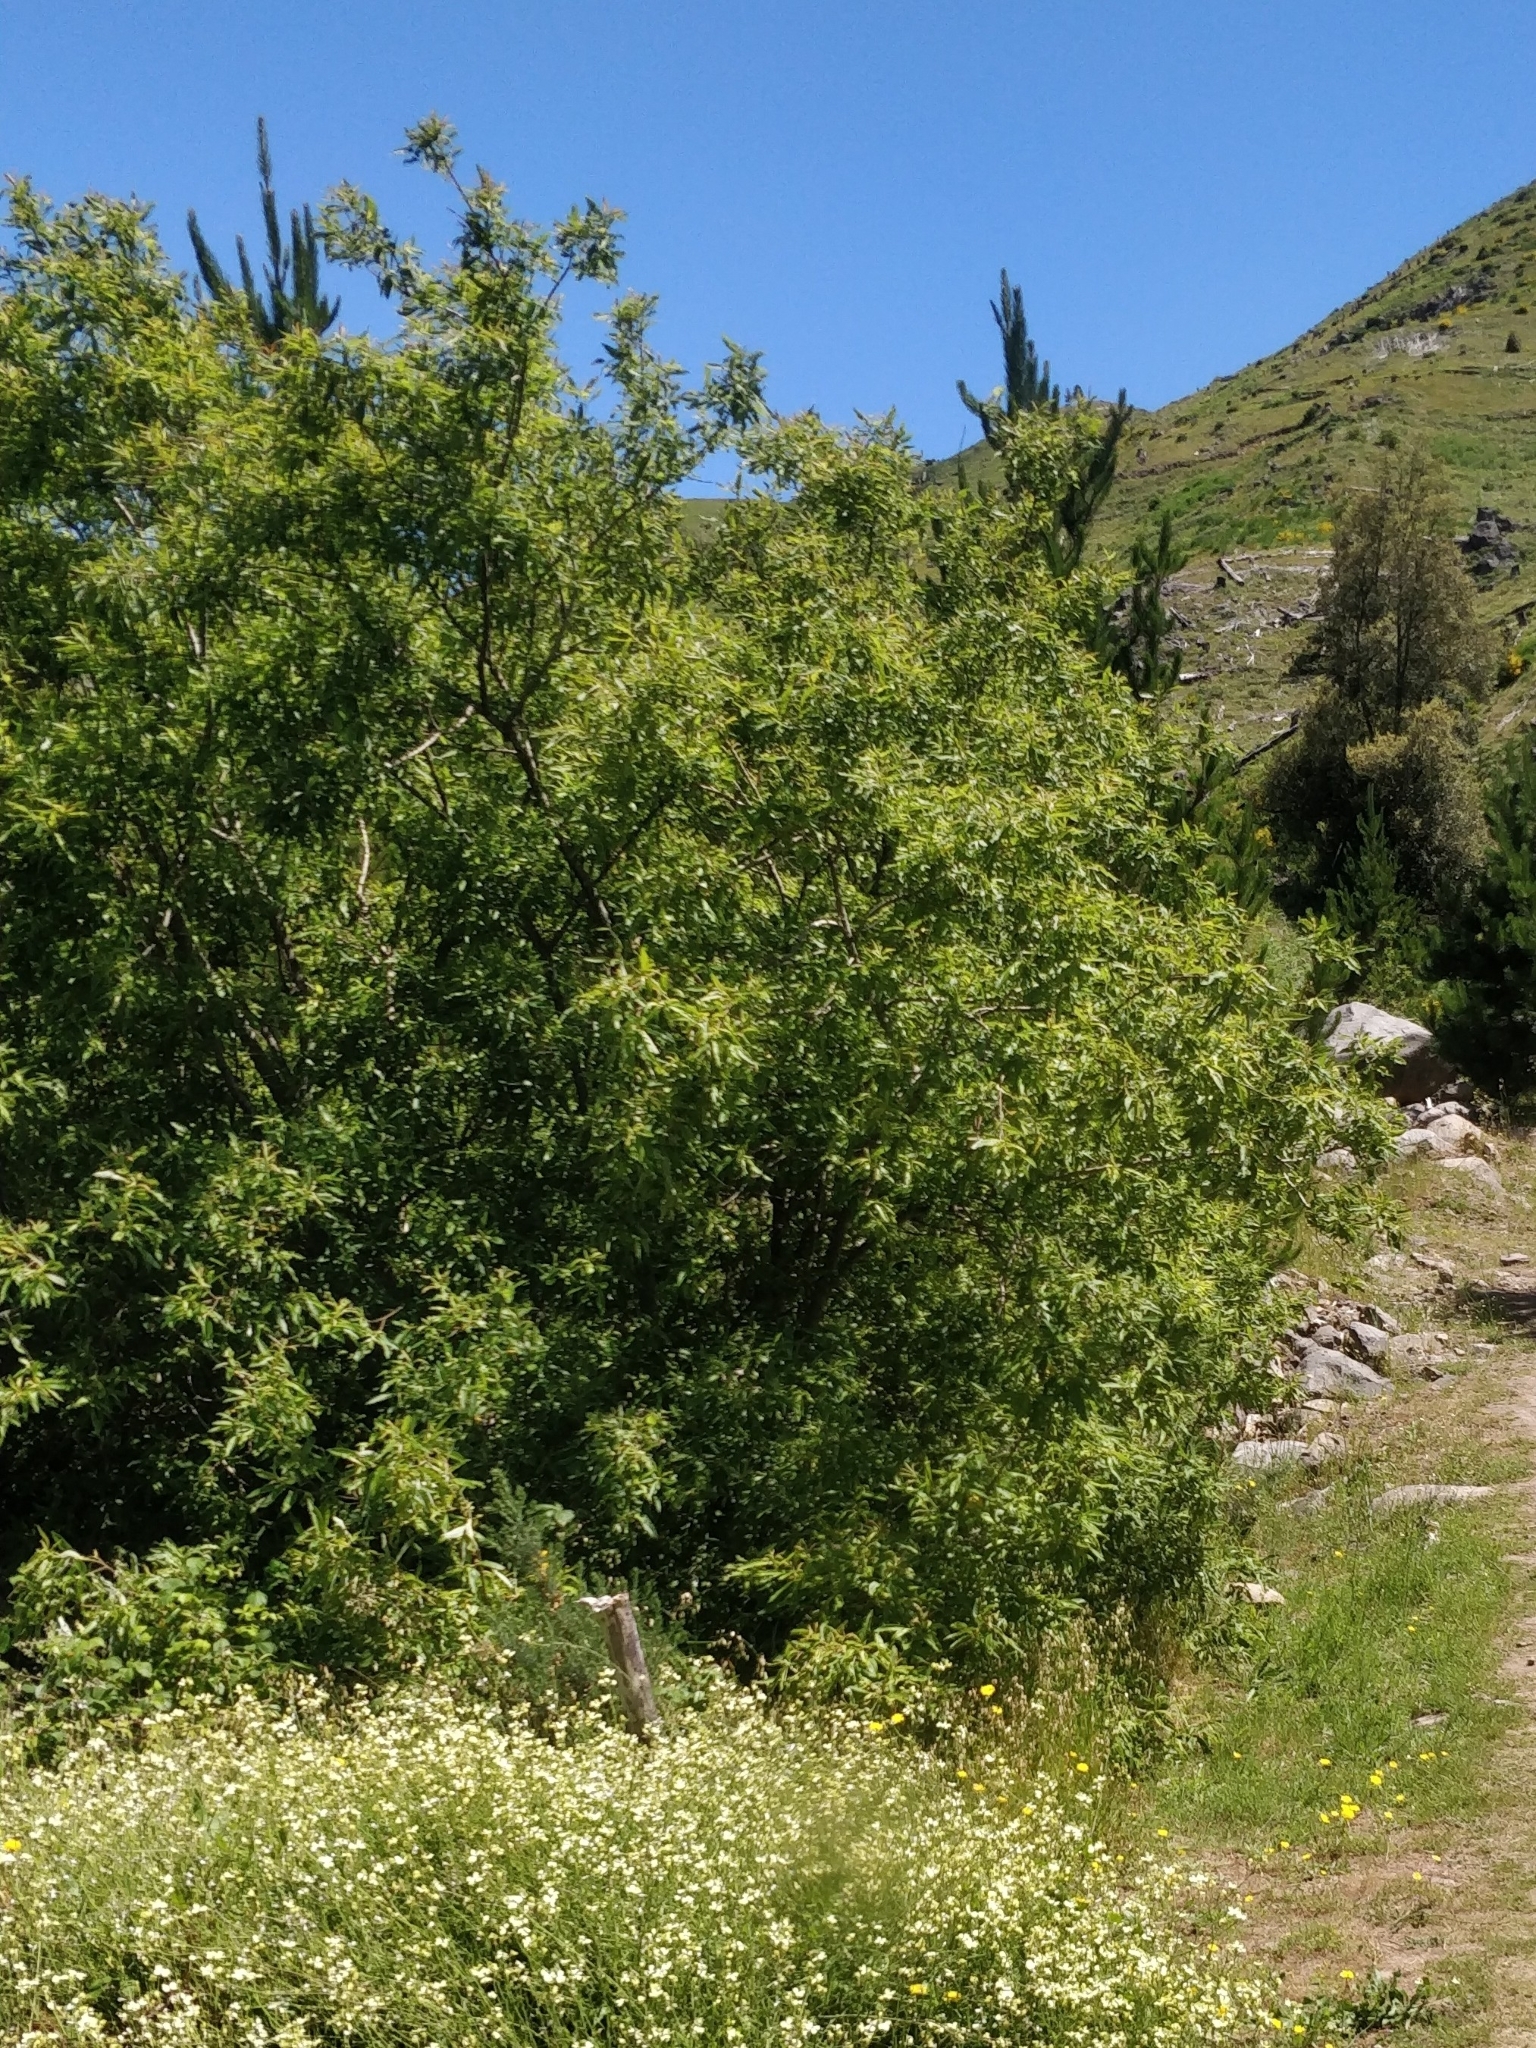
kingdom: Plantae
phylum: Tracheophyta
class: Magnoliopsida
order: Malpighiales
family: Salicaceae
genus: Salix
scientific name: Salix canariensis
